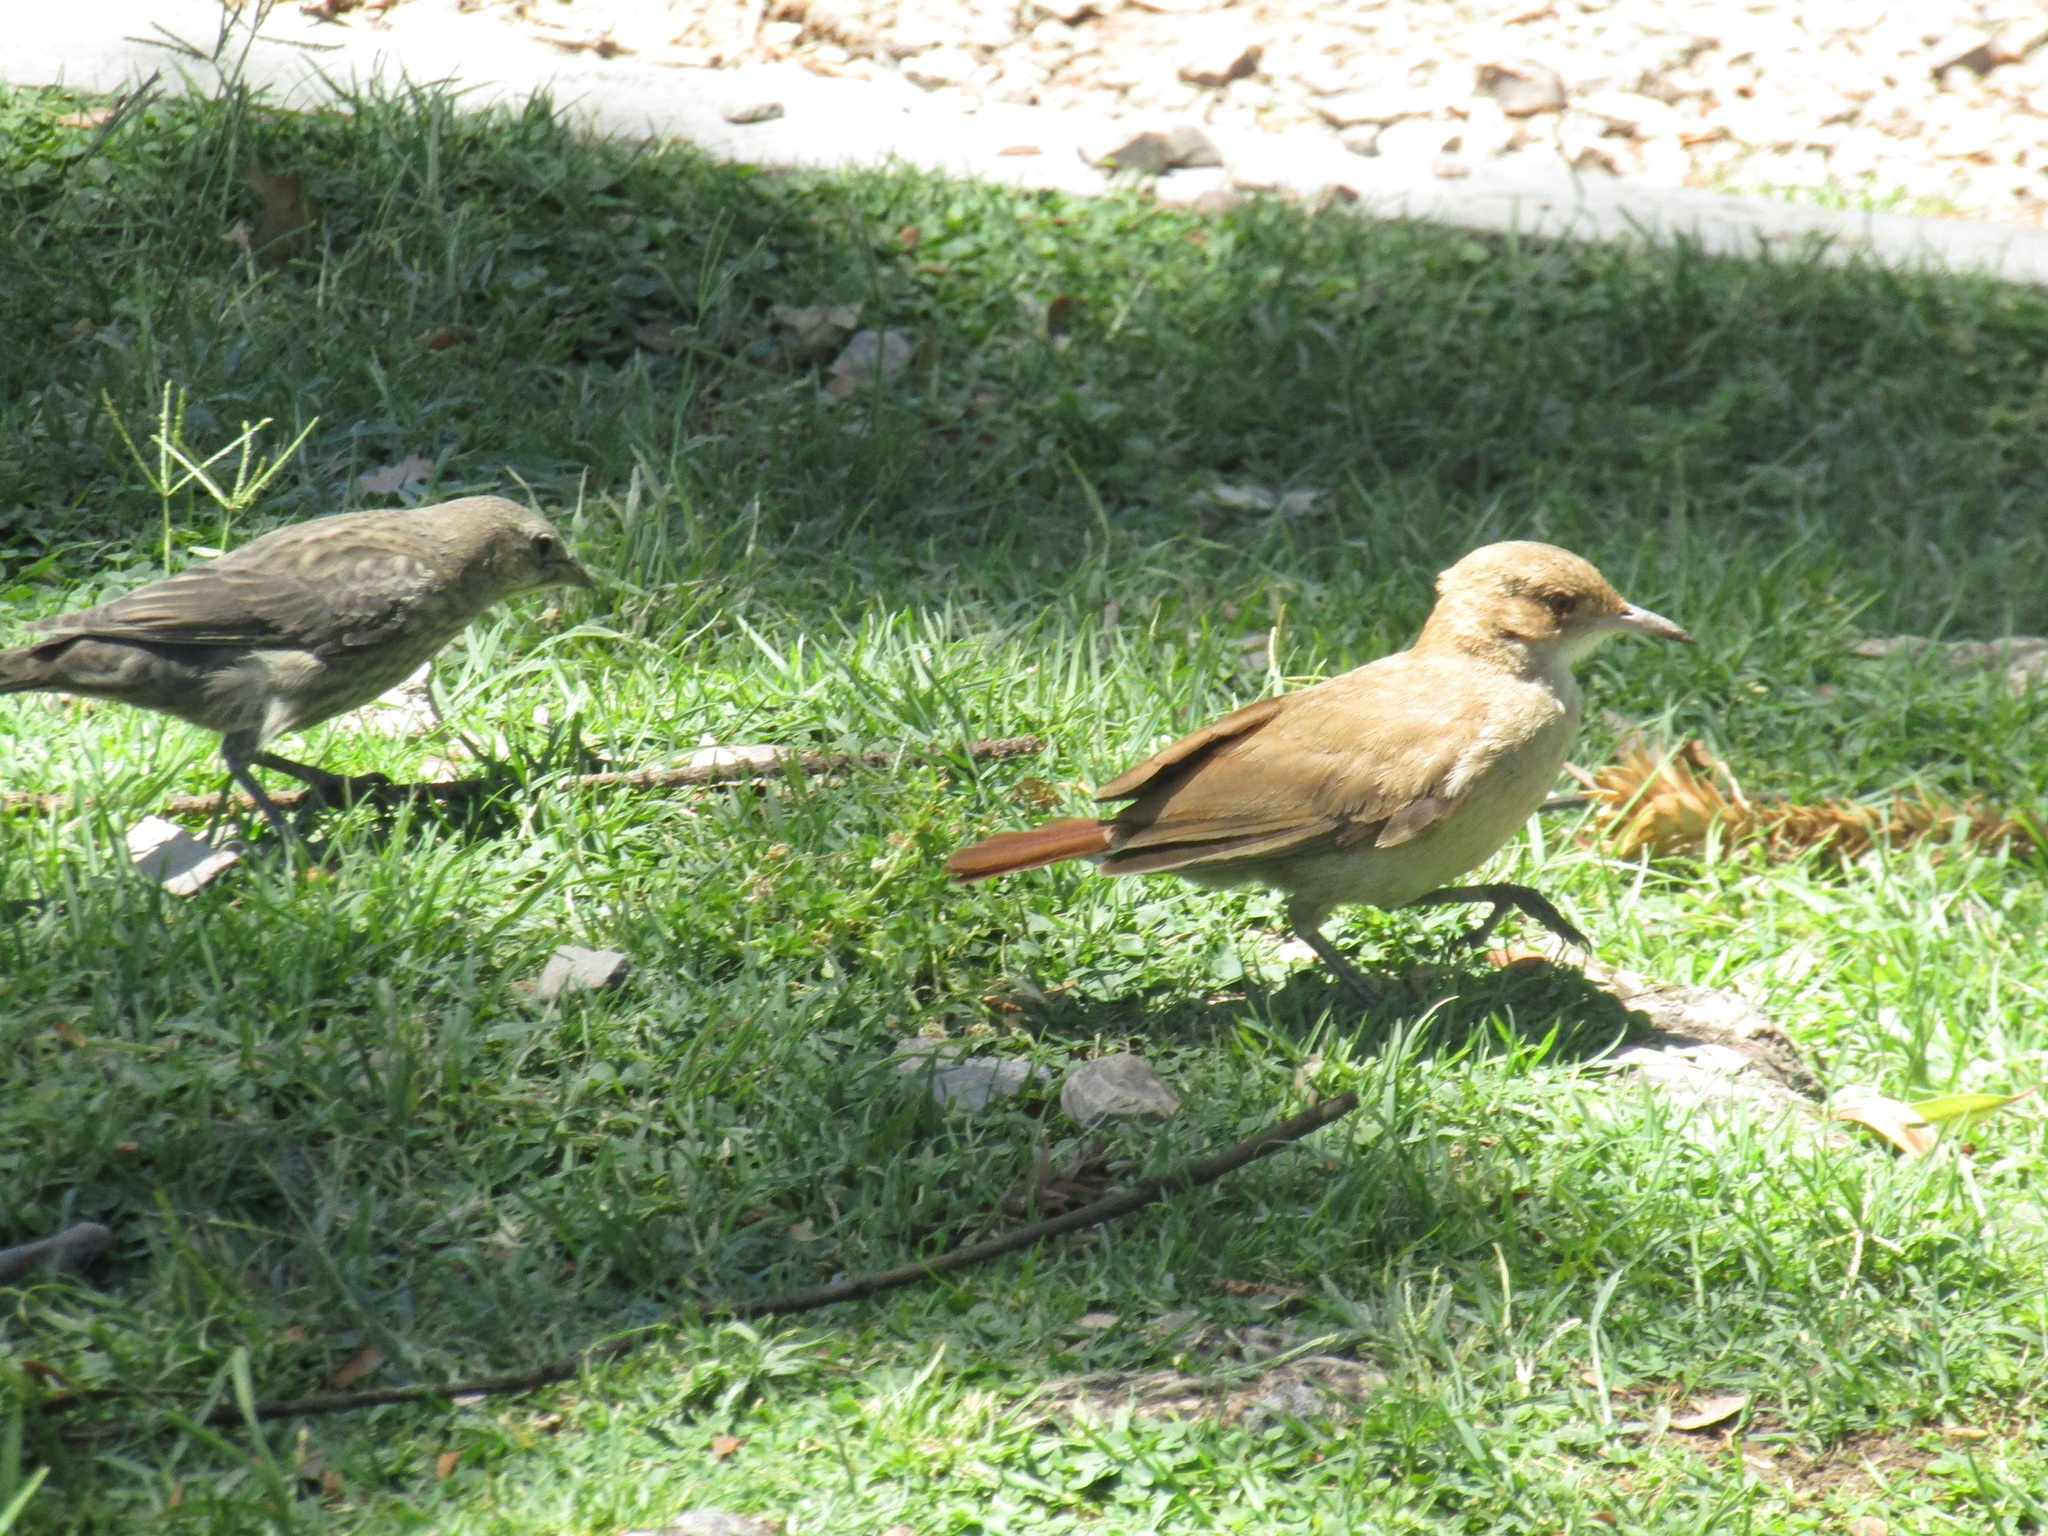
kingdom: Animalia
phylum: Chordata
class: Aves
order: Passeriformes
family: Furnariidae
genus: Furnarius
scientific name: Furnarius rufus
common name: Rufous hornero
